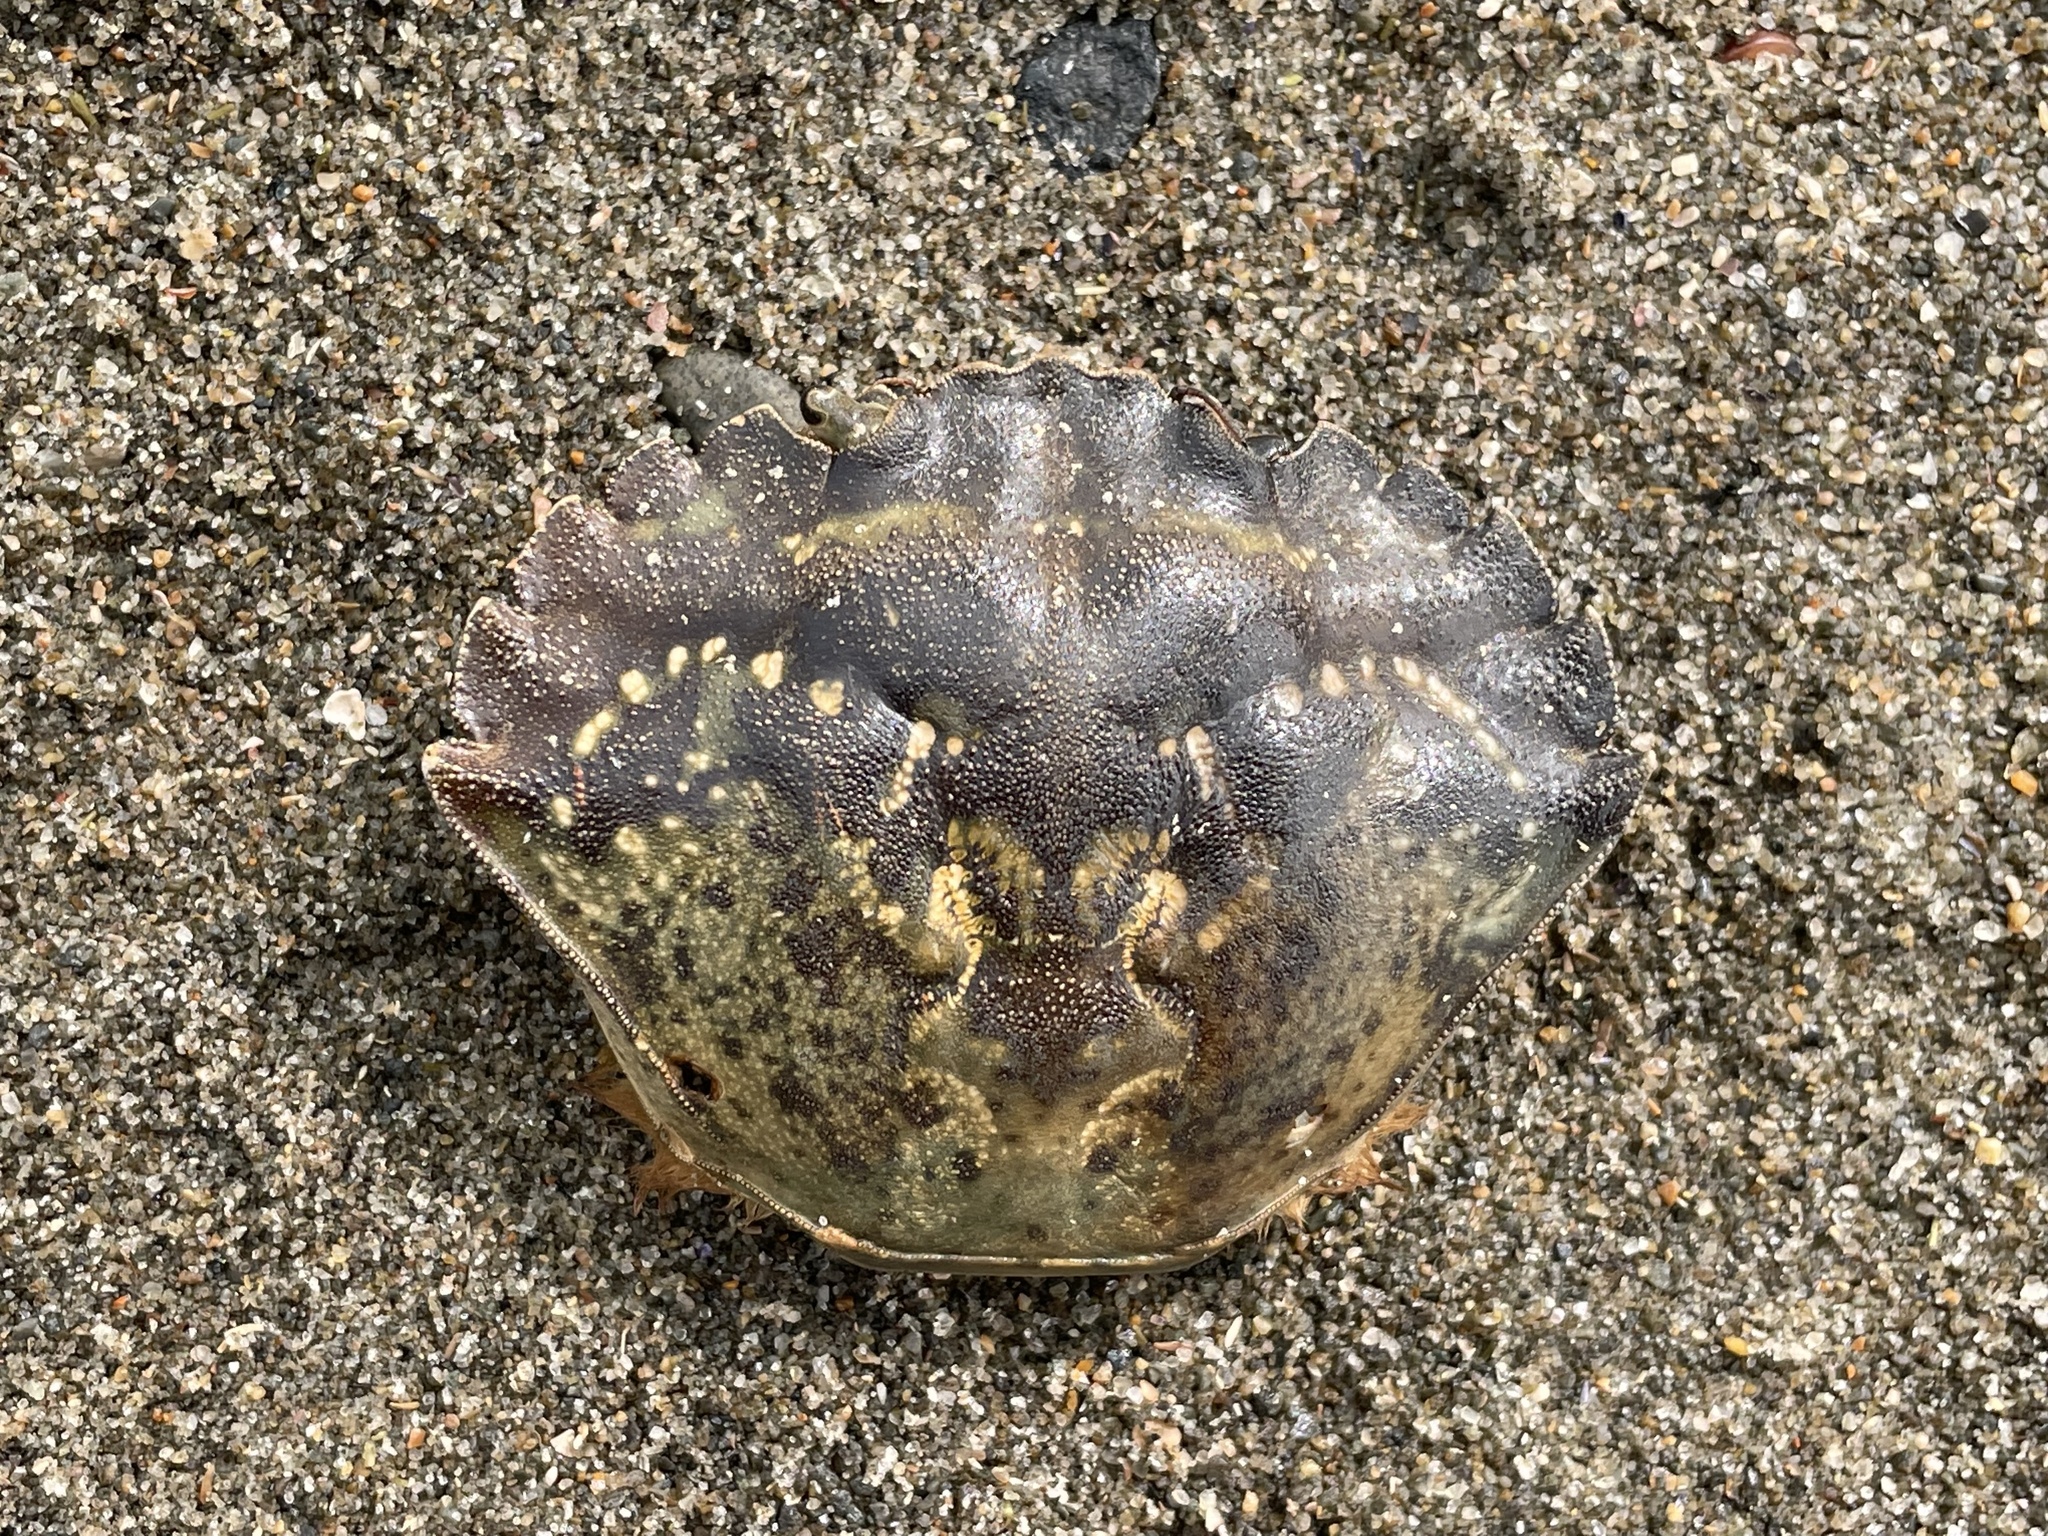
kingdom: Animalia
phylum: Arthropoda
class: Malacostraca
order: Decapoda
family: Carcinidae
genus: Carcinus
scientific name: Carcinus maenas
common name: European green crab
